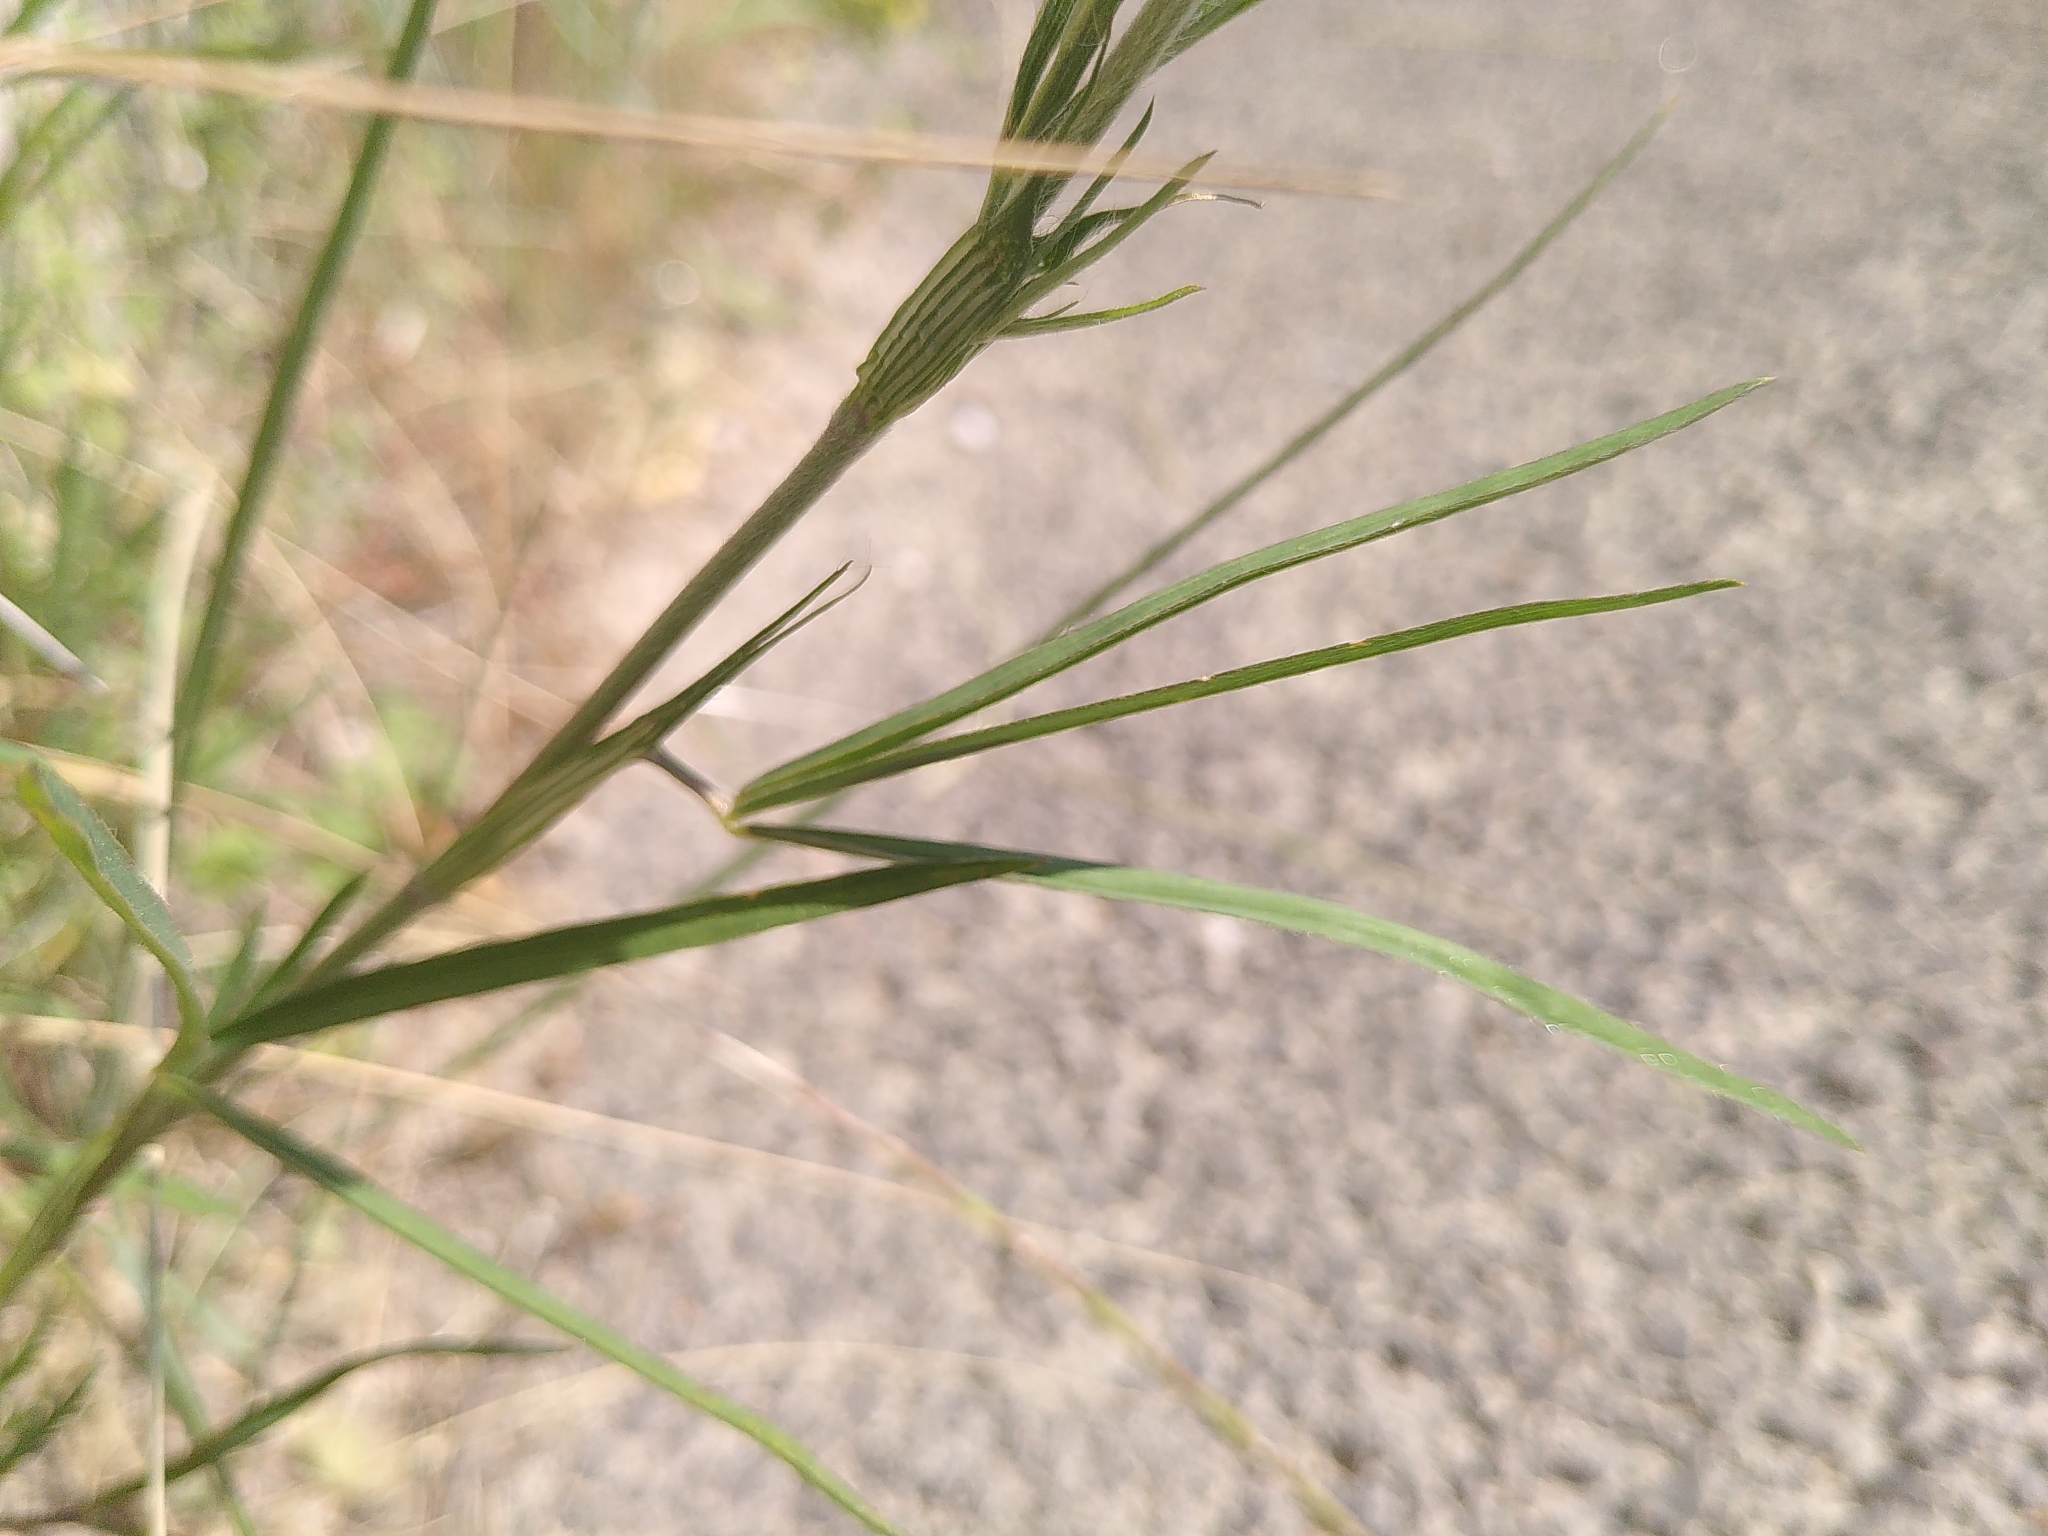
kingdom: Plantae
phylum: Tracheophyta
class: Magnoliopsida
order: Fabales
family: Fabaceae
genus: Trifolium
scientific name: Trifolium angustifolium
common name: Narrow clover
